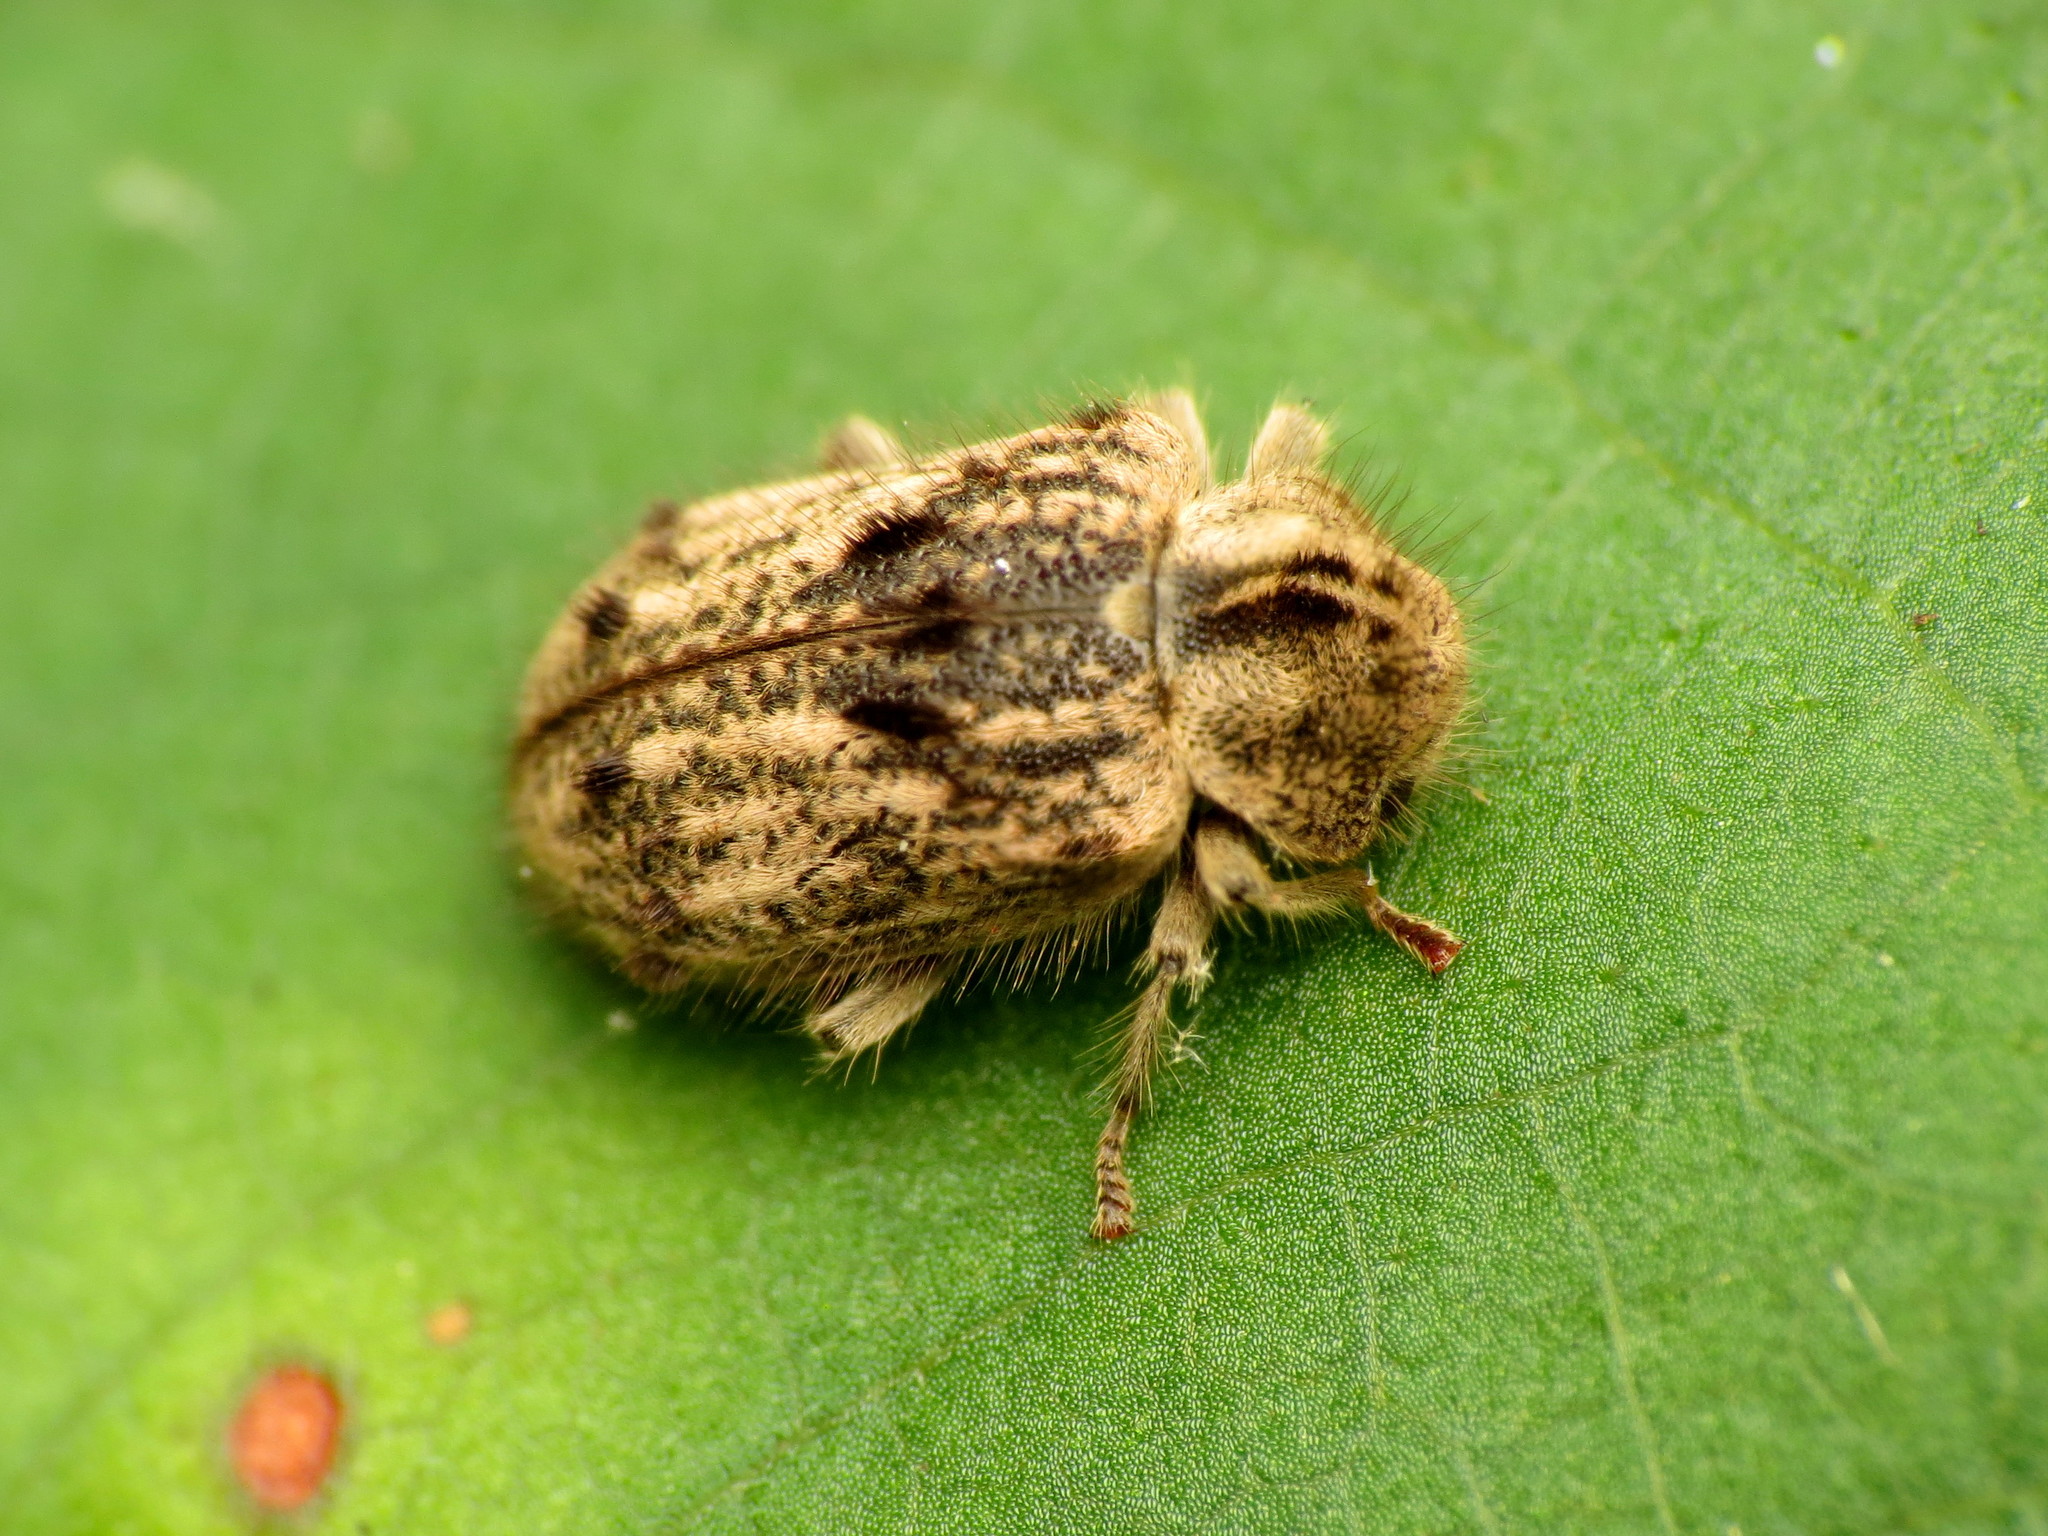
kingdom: Animalia
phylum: Arthropoda
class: Insecta
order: Coleoptera
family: Anobiidae
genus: Trichodesma
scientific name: Trichodesma klagesi
